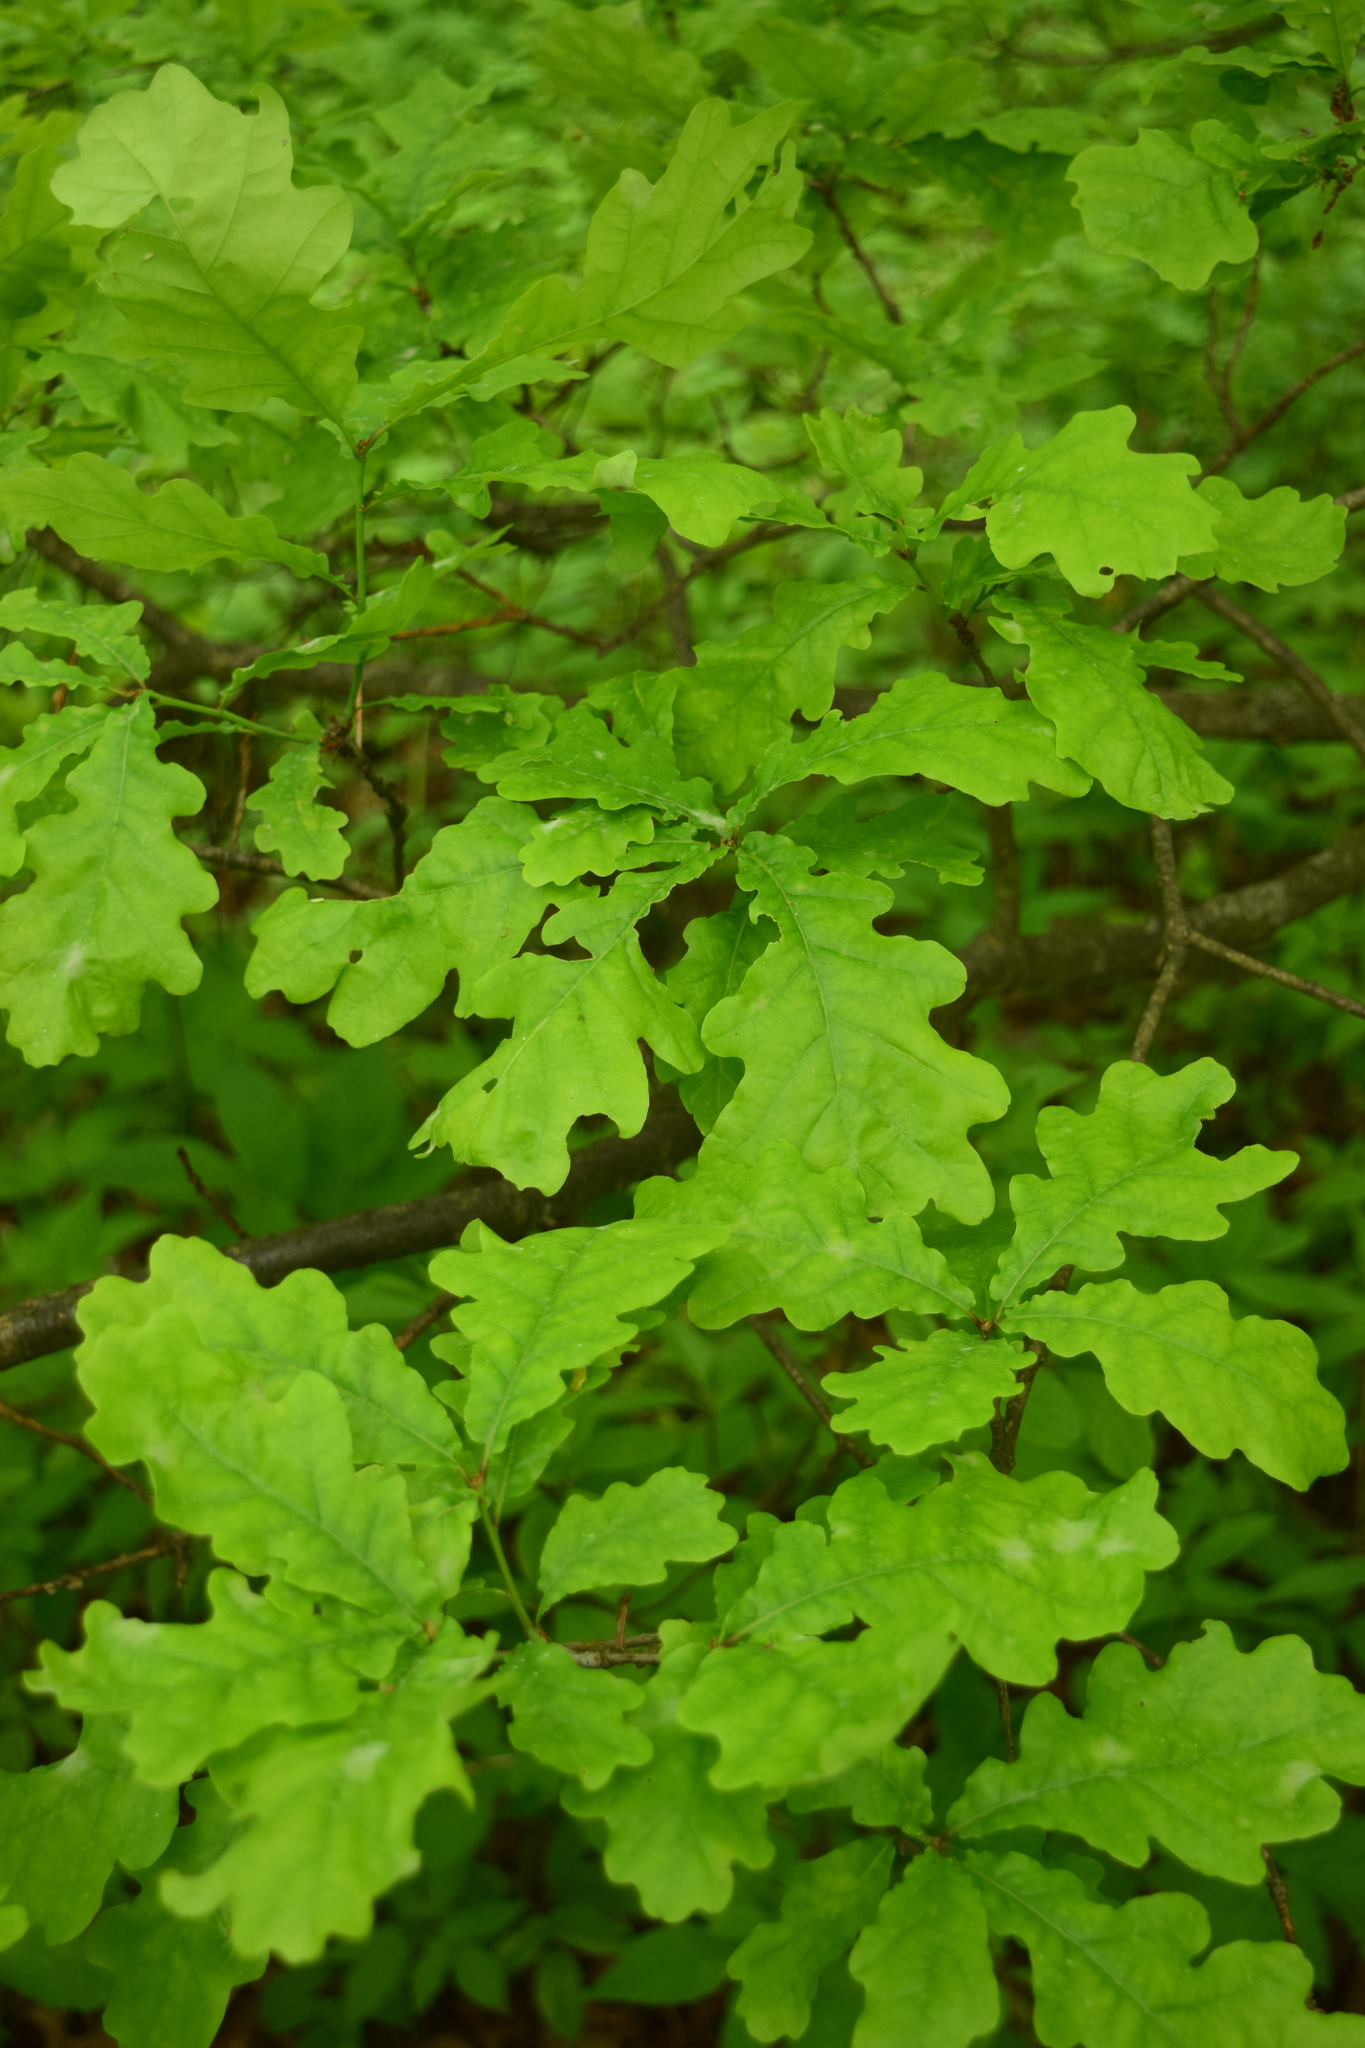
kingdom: Plantae
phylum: Tracheophyta
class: Magnoliopsida
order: Fagales
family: Fagaceae
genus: Quercus
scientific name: Quercus robur
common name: Pedunculate oak
